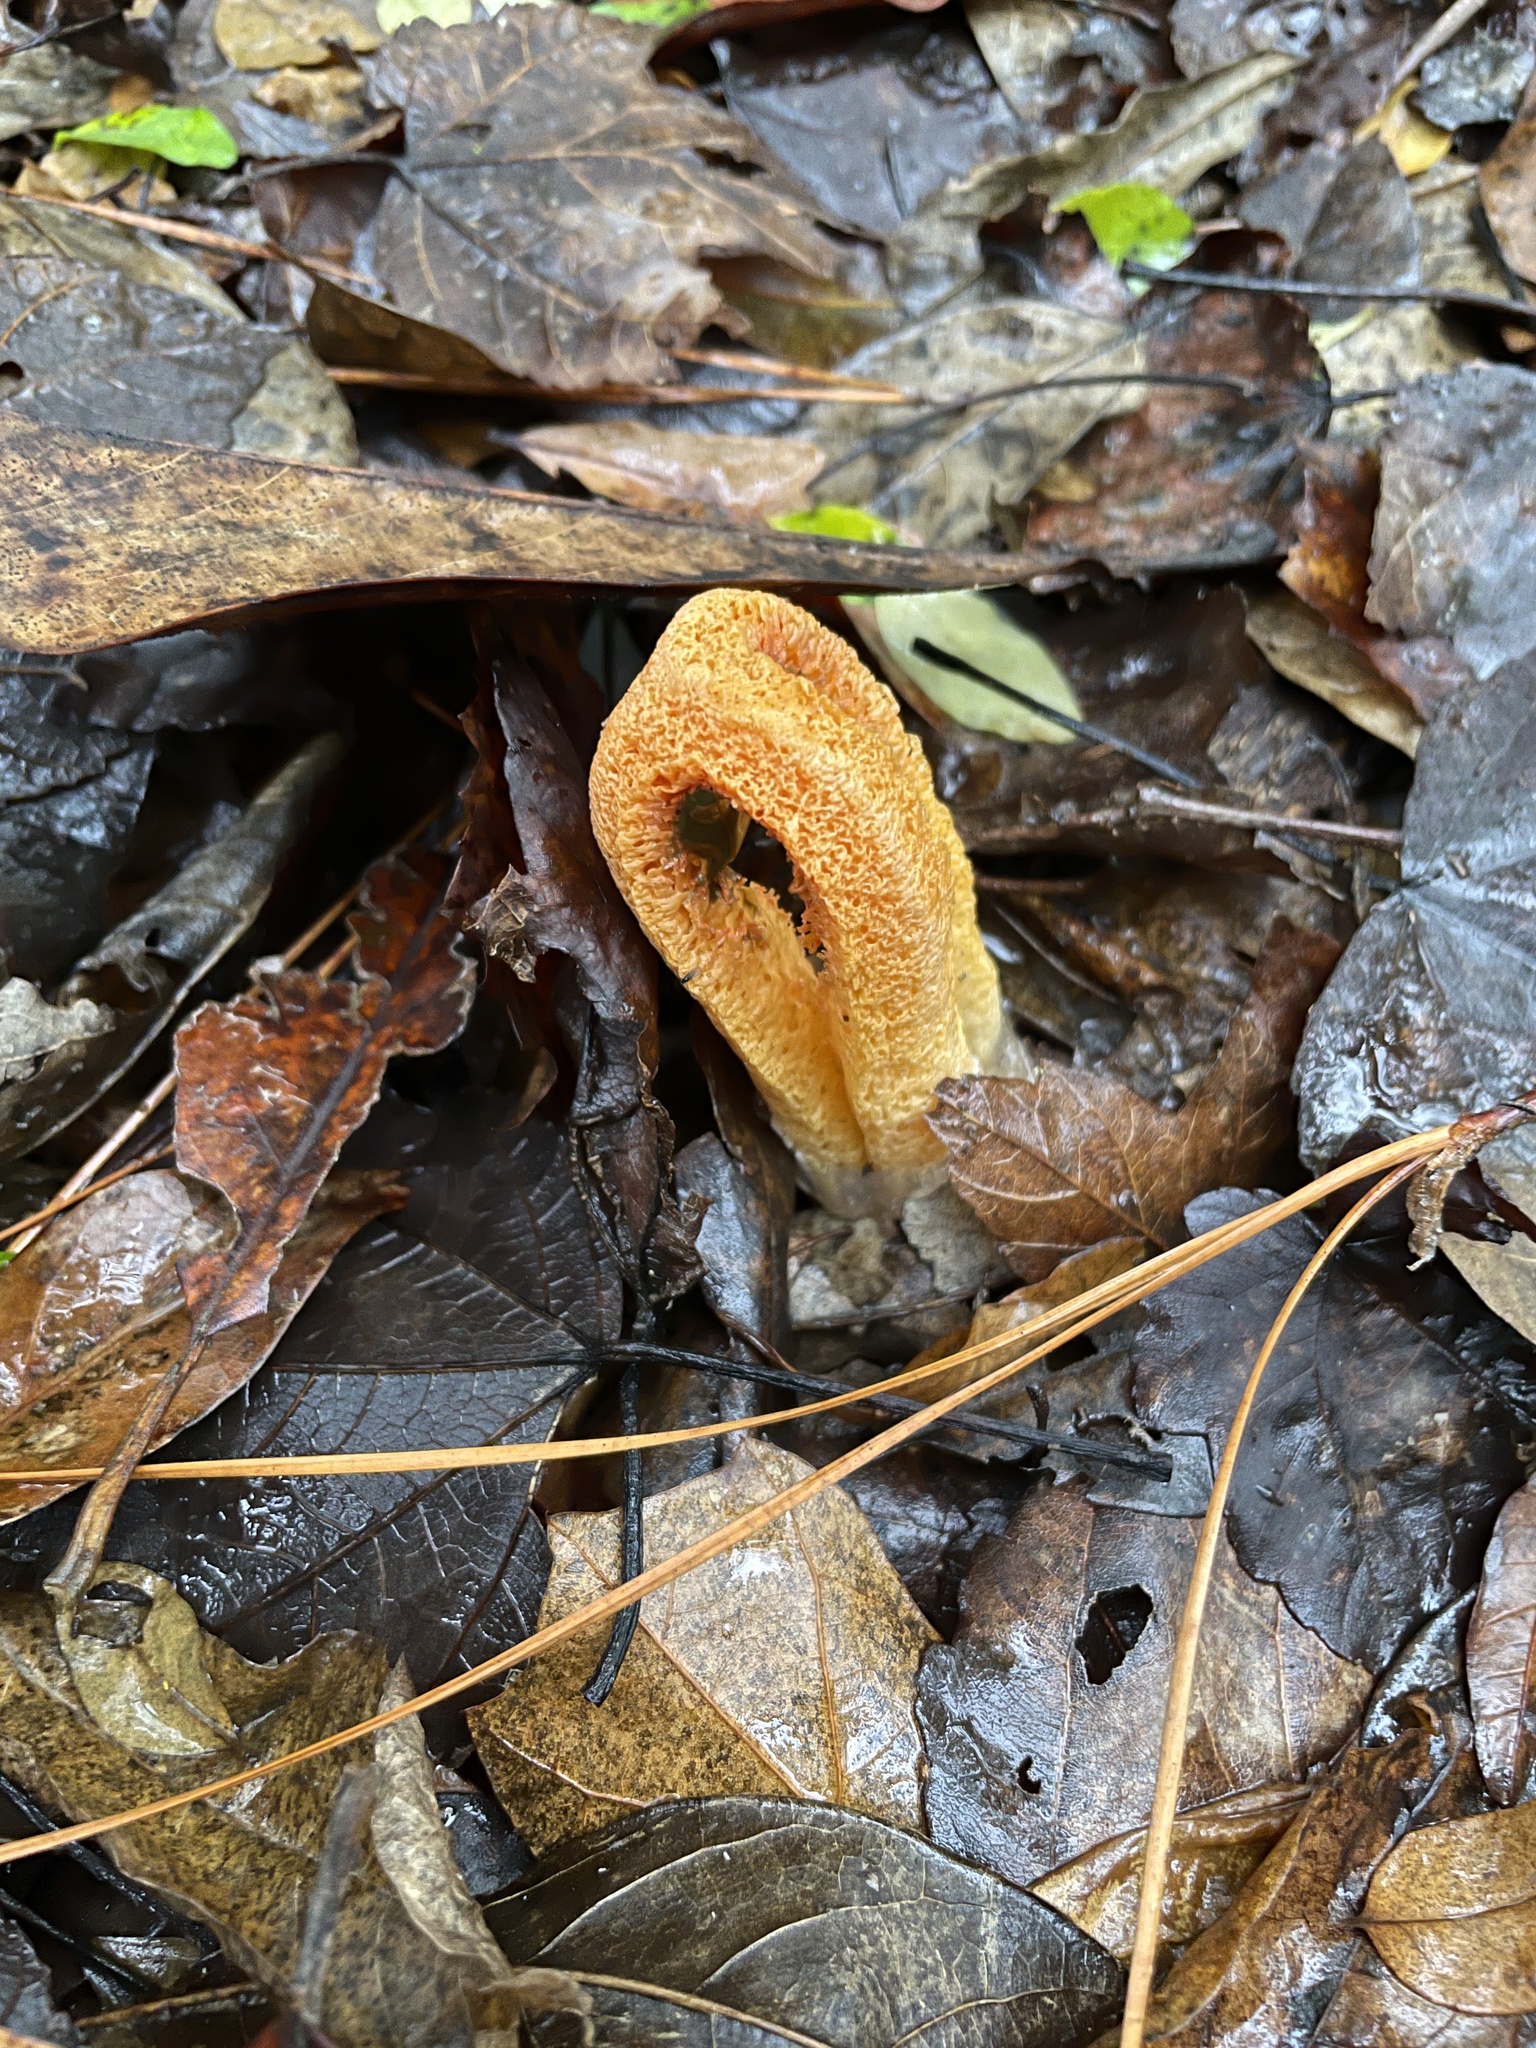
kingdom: Fungi
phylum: Basidiomycota
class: Agaricomycetes
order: Phallales
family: Phallaceae
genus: Clathrus
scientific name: Clathrus columnatus
